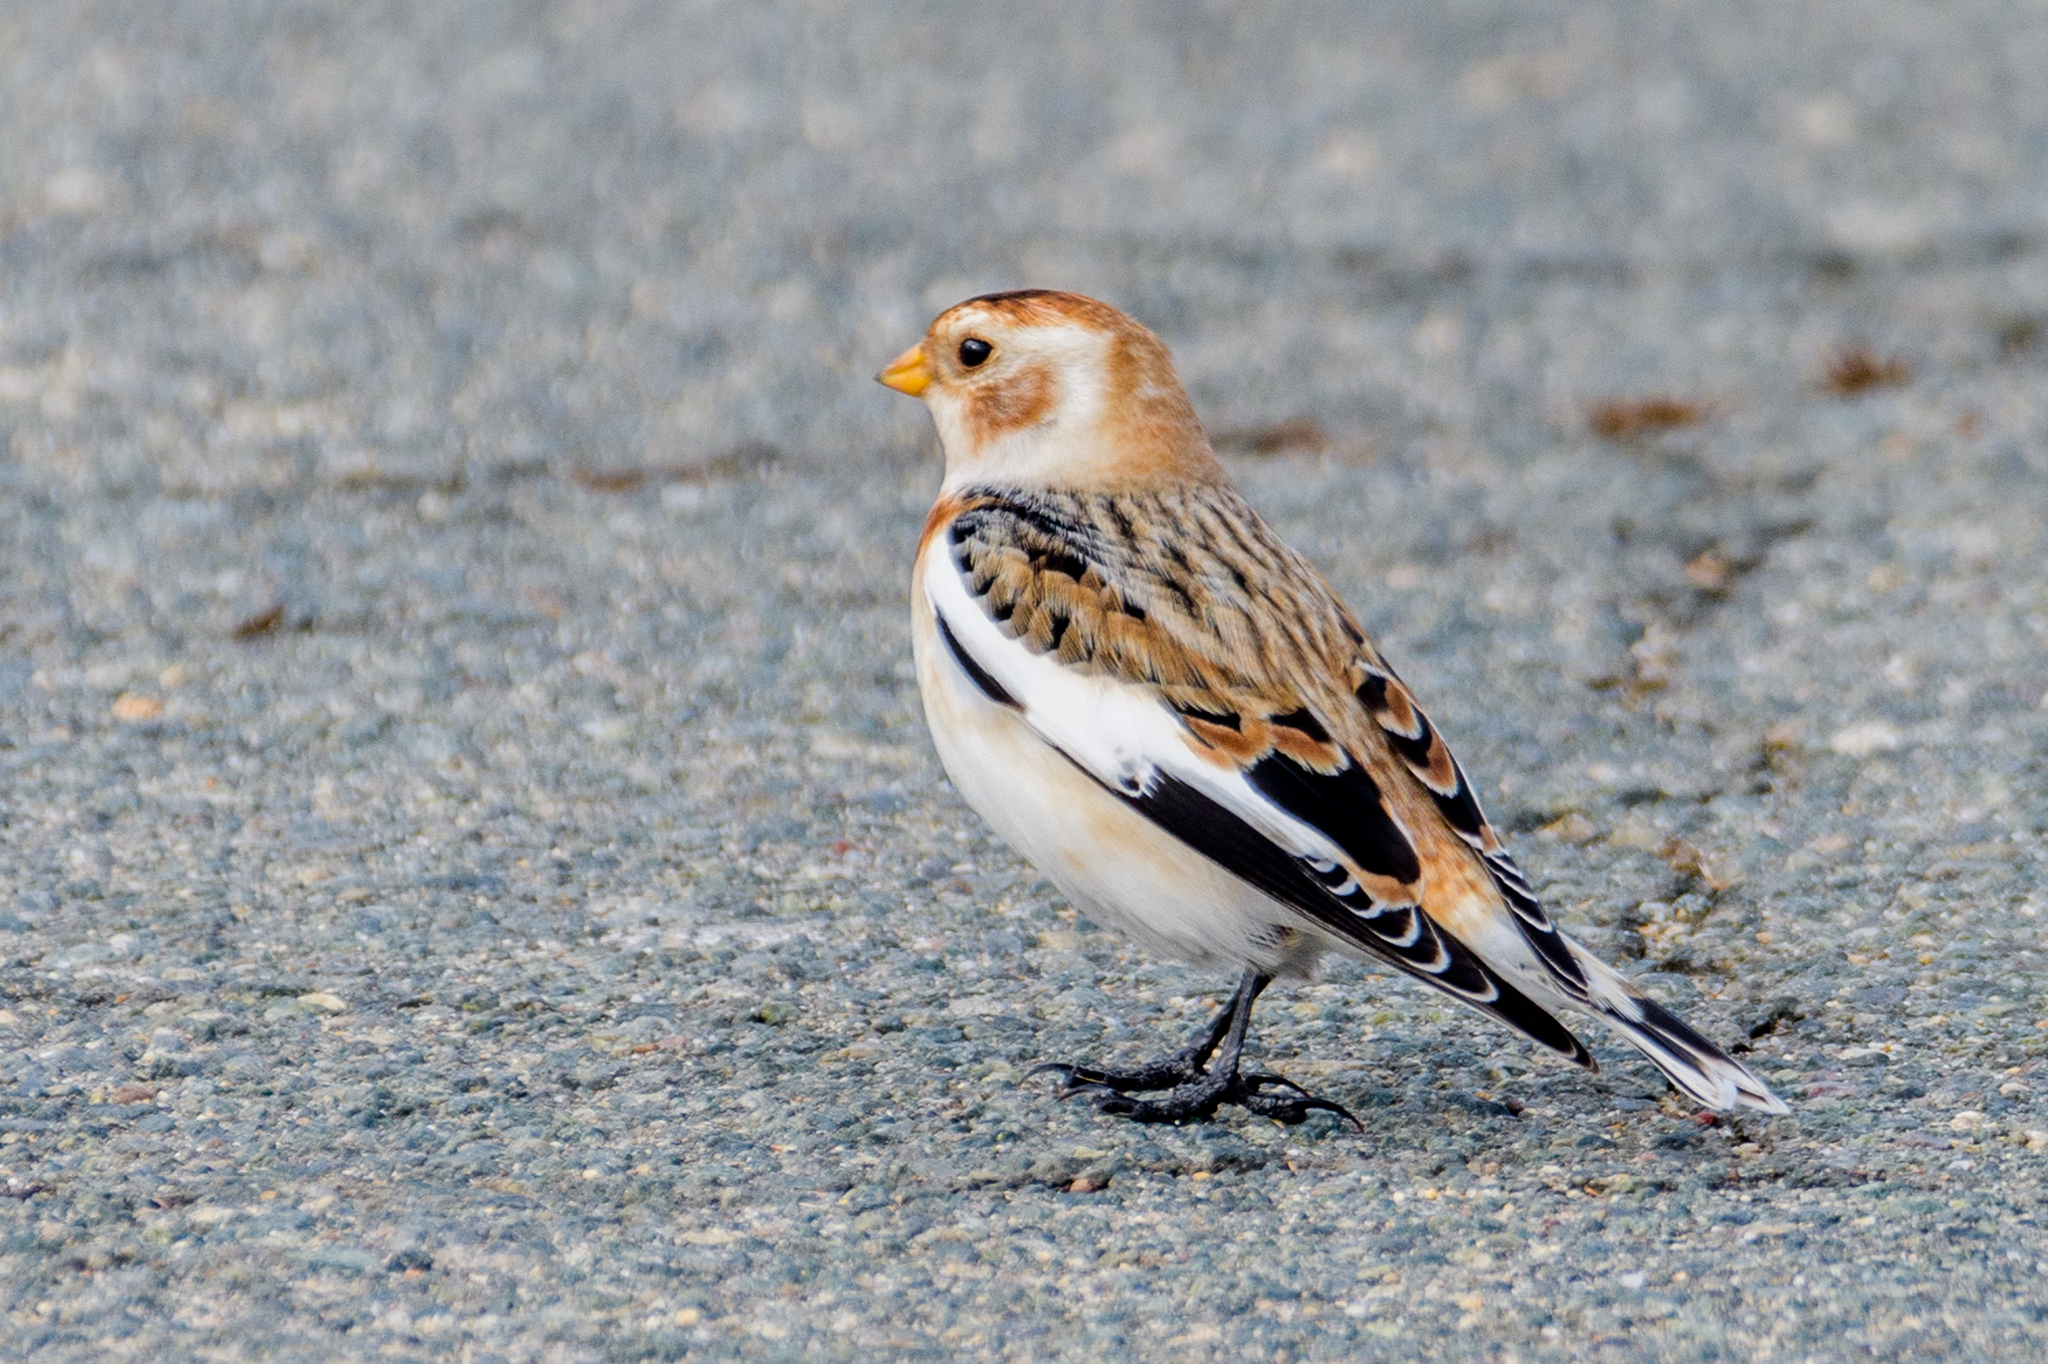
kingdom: Animalia
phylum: Chordata
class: Aves
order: Passeriformes
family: Calcariidae
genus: Plectrophenax
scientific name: Plectrophenax nivalis
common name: Snow bunting
